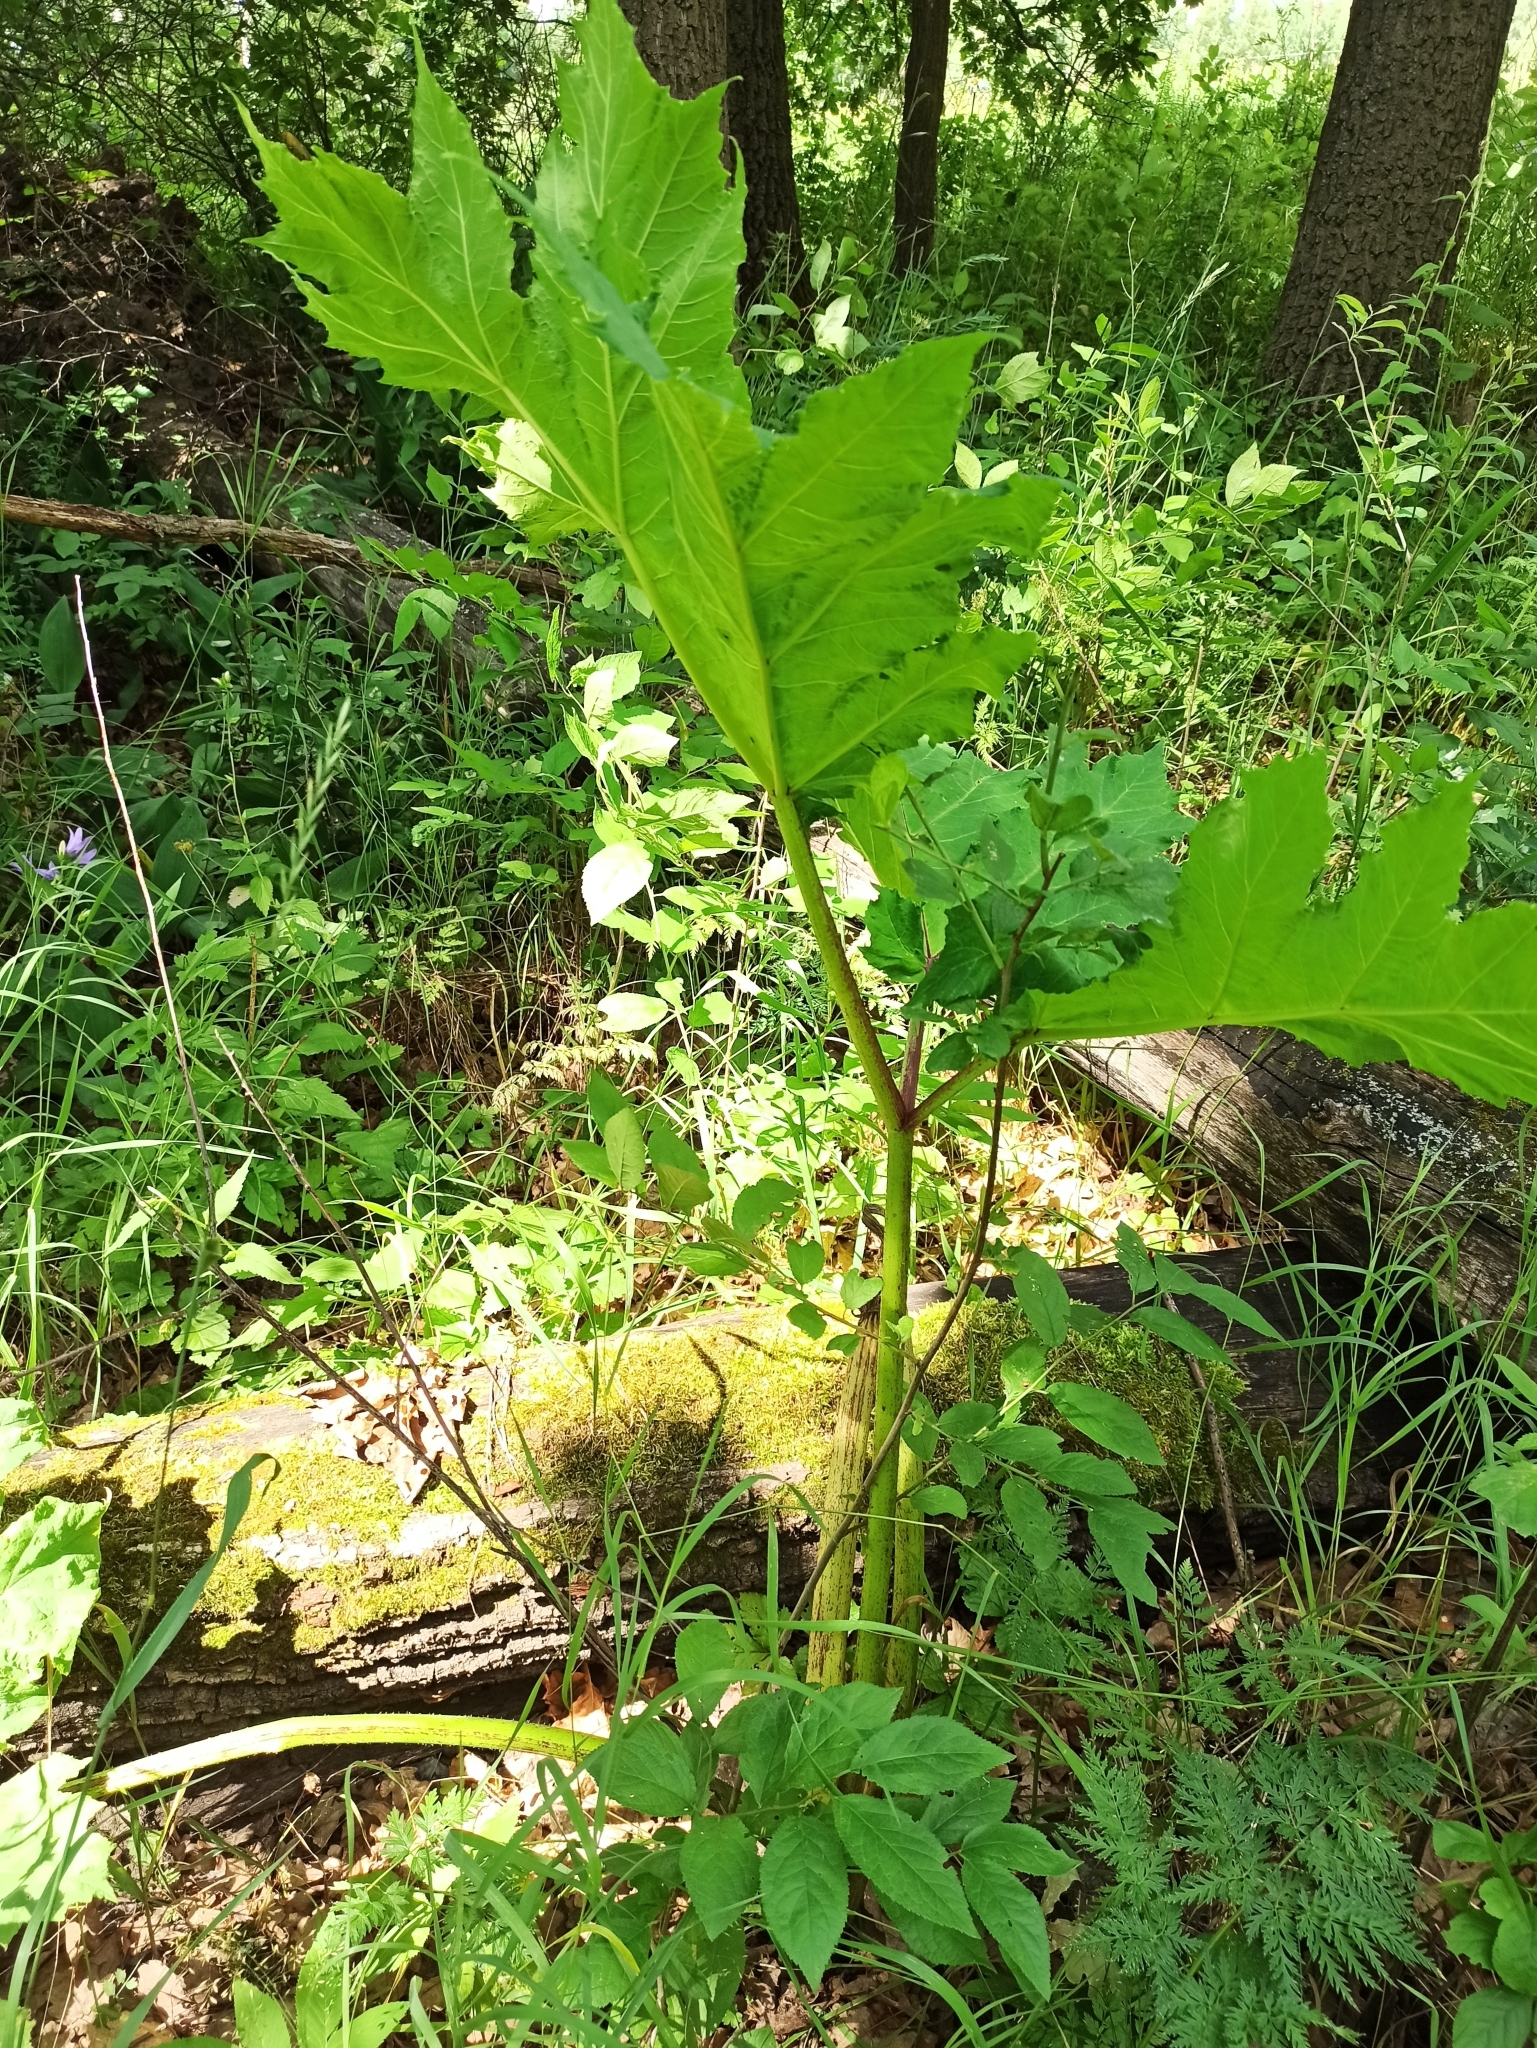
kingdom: Plantae
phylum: Tracheophyta
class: Magnoliopsida
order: Apiales
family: Apiaceae
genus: Heracleum
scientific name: Heracleum sosnowskyi
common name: Sosnowsky's hogweed
